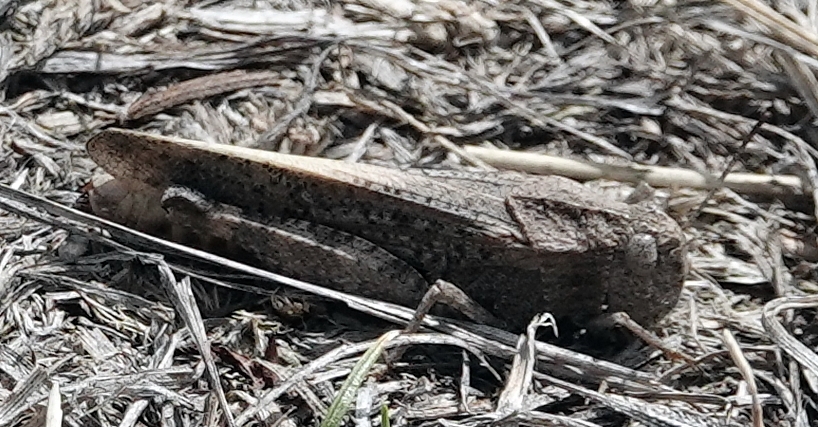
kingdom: Animalia
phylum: Arthropoda
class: Insecta
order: Orthoptera
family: Acrididae
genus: Arphia
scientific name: Arphia conspersa
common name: Speckle-winged rangeland grasshopper
